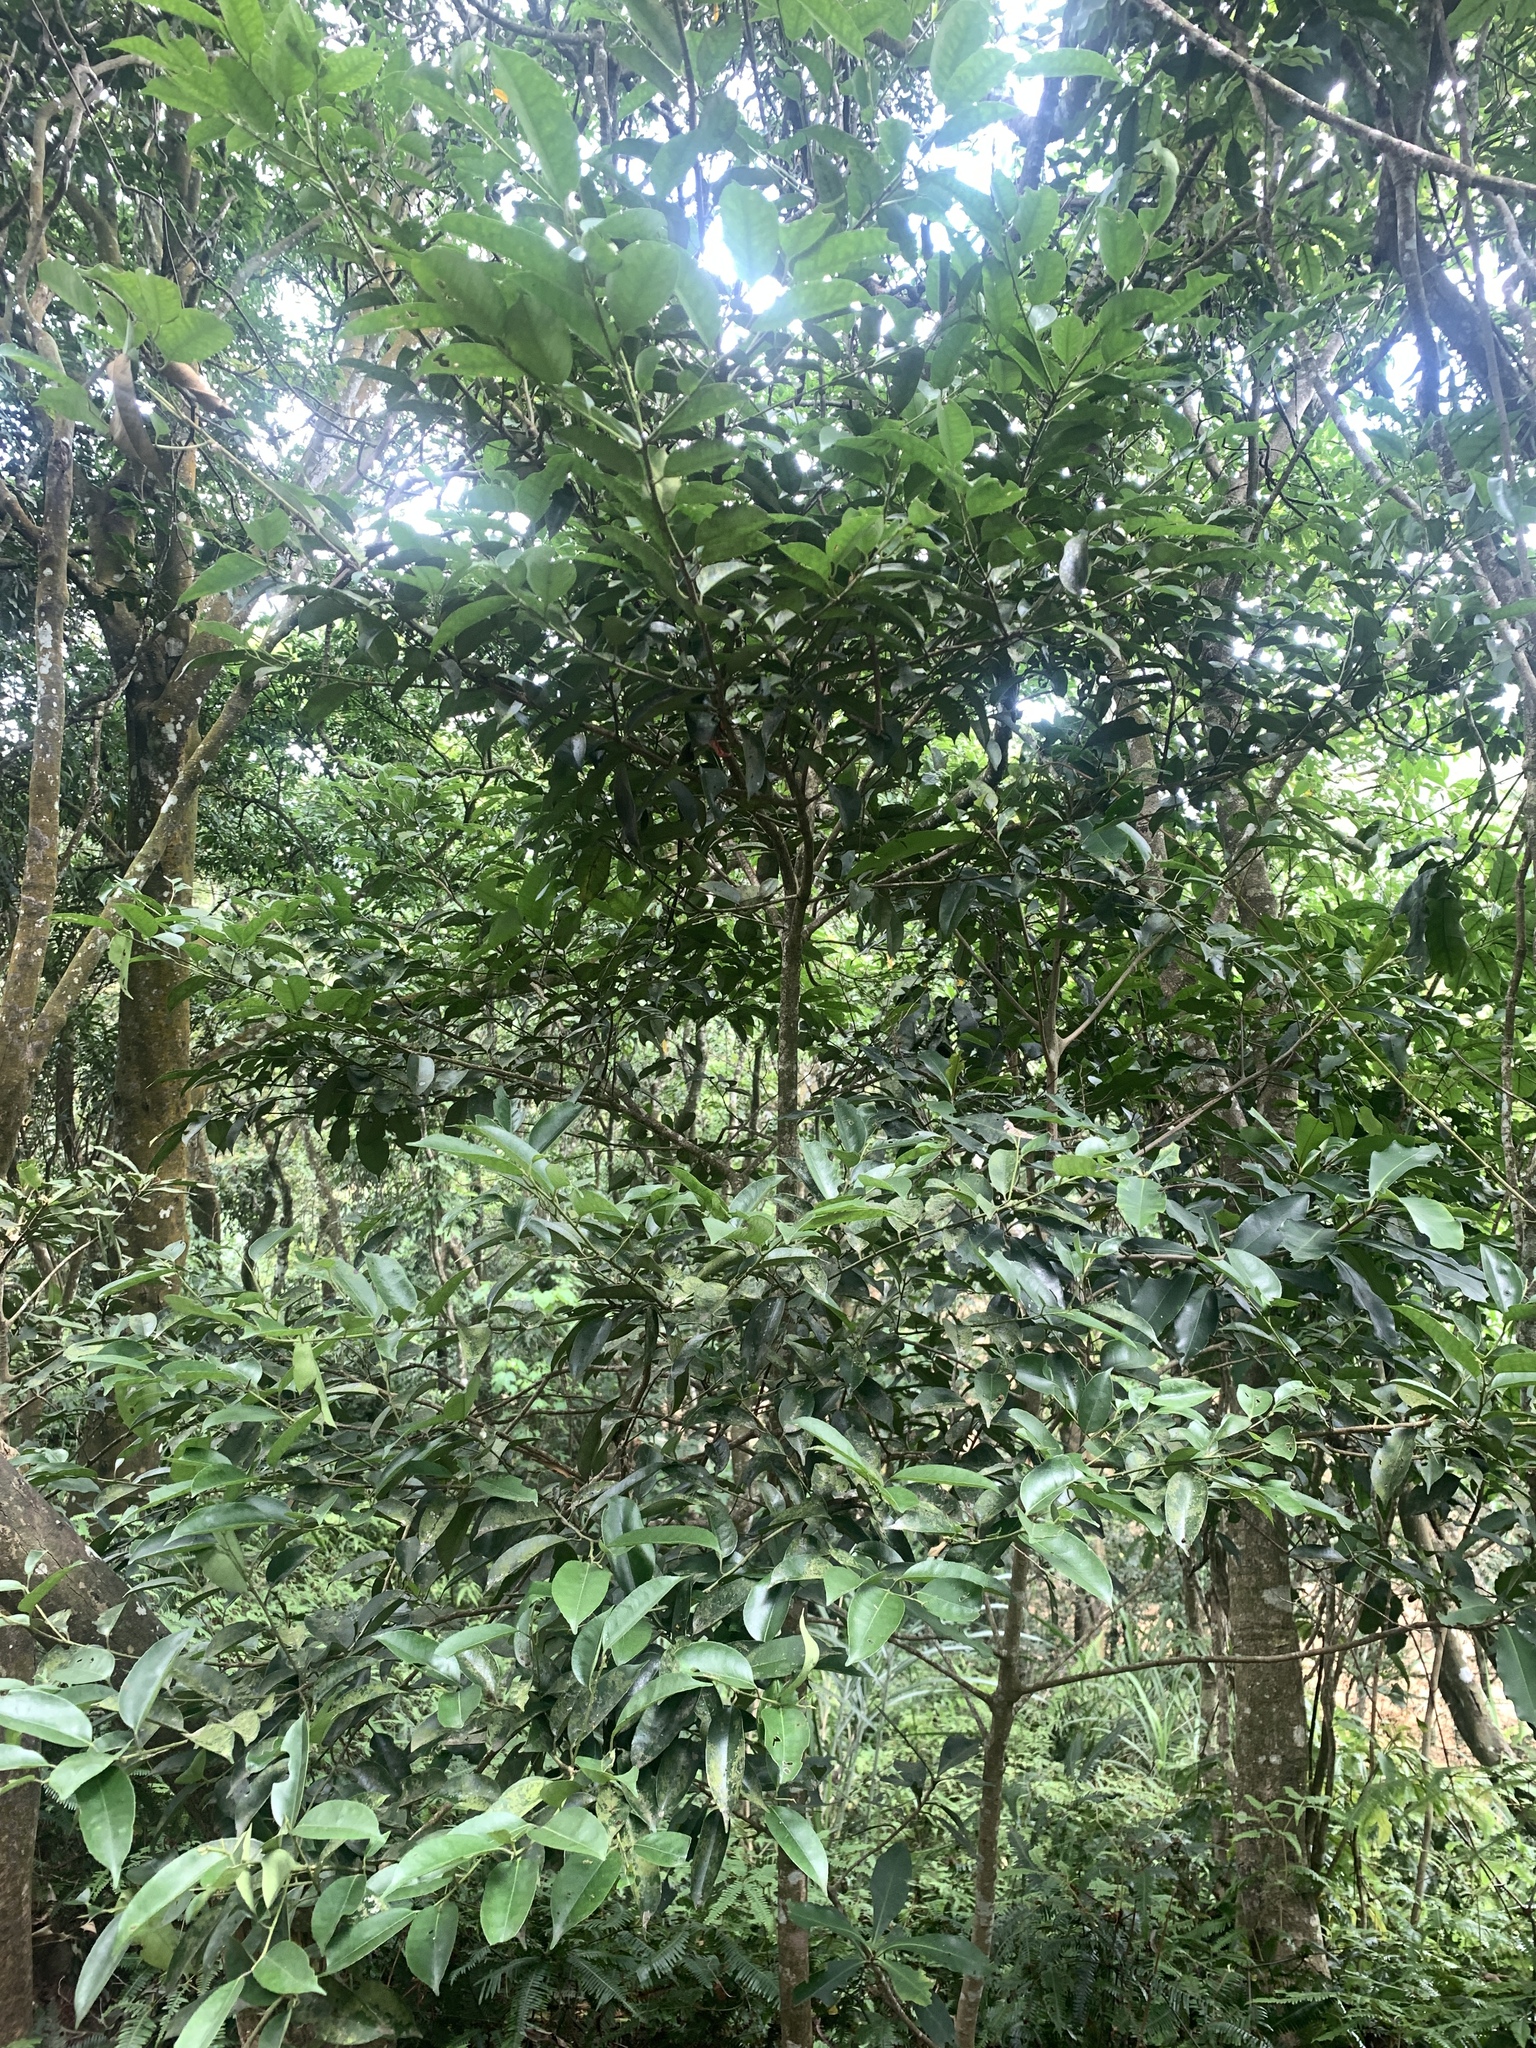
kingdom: Plantae
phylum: Tracheophyta
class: Magnoliopsida
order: Aquifoliales
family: Aquifoliaceae
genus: Ilex
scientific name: Ilex ficoidea
